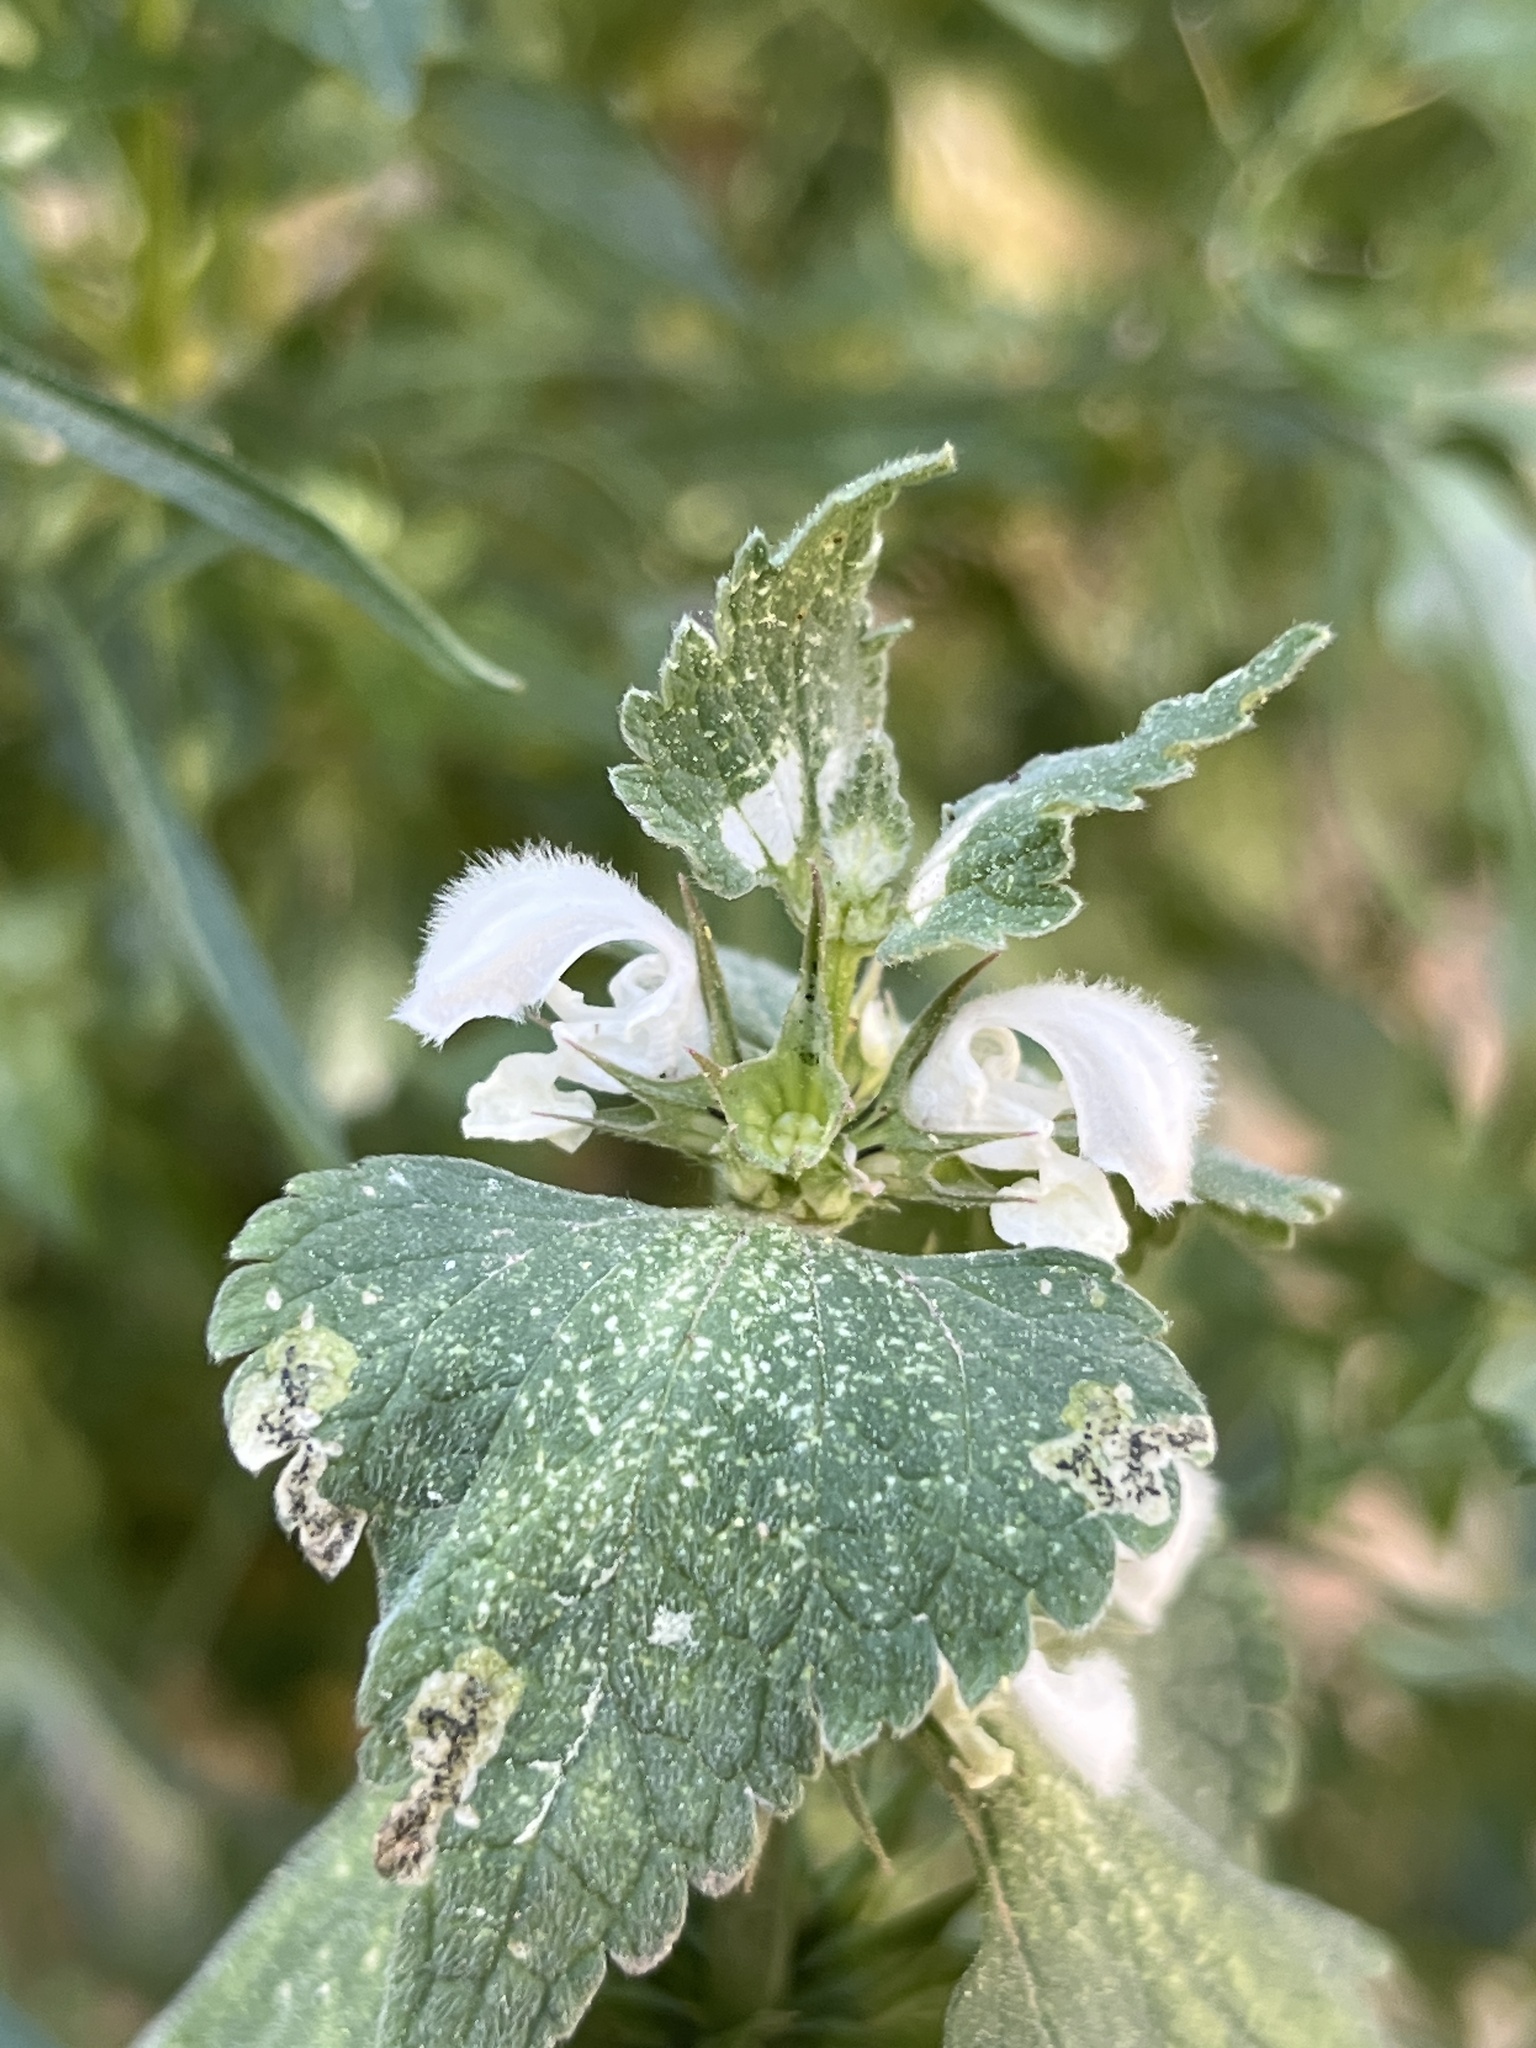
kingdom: Plantae
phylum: Tracheophyta
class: Magnoliopsida
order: Lamiales
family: Lamiaceae
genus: Lamium
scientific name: Lamium moschatum
